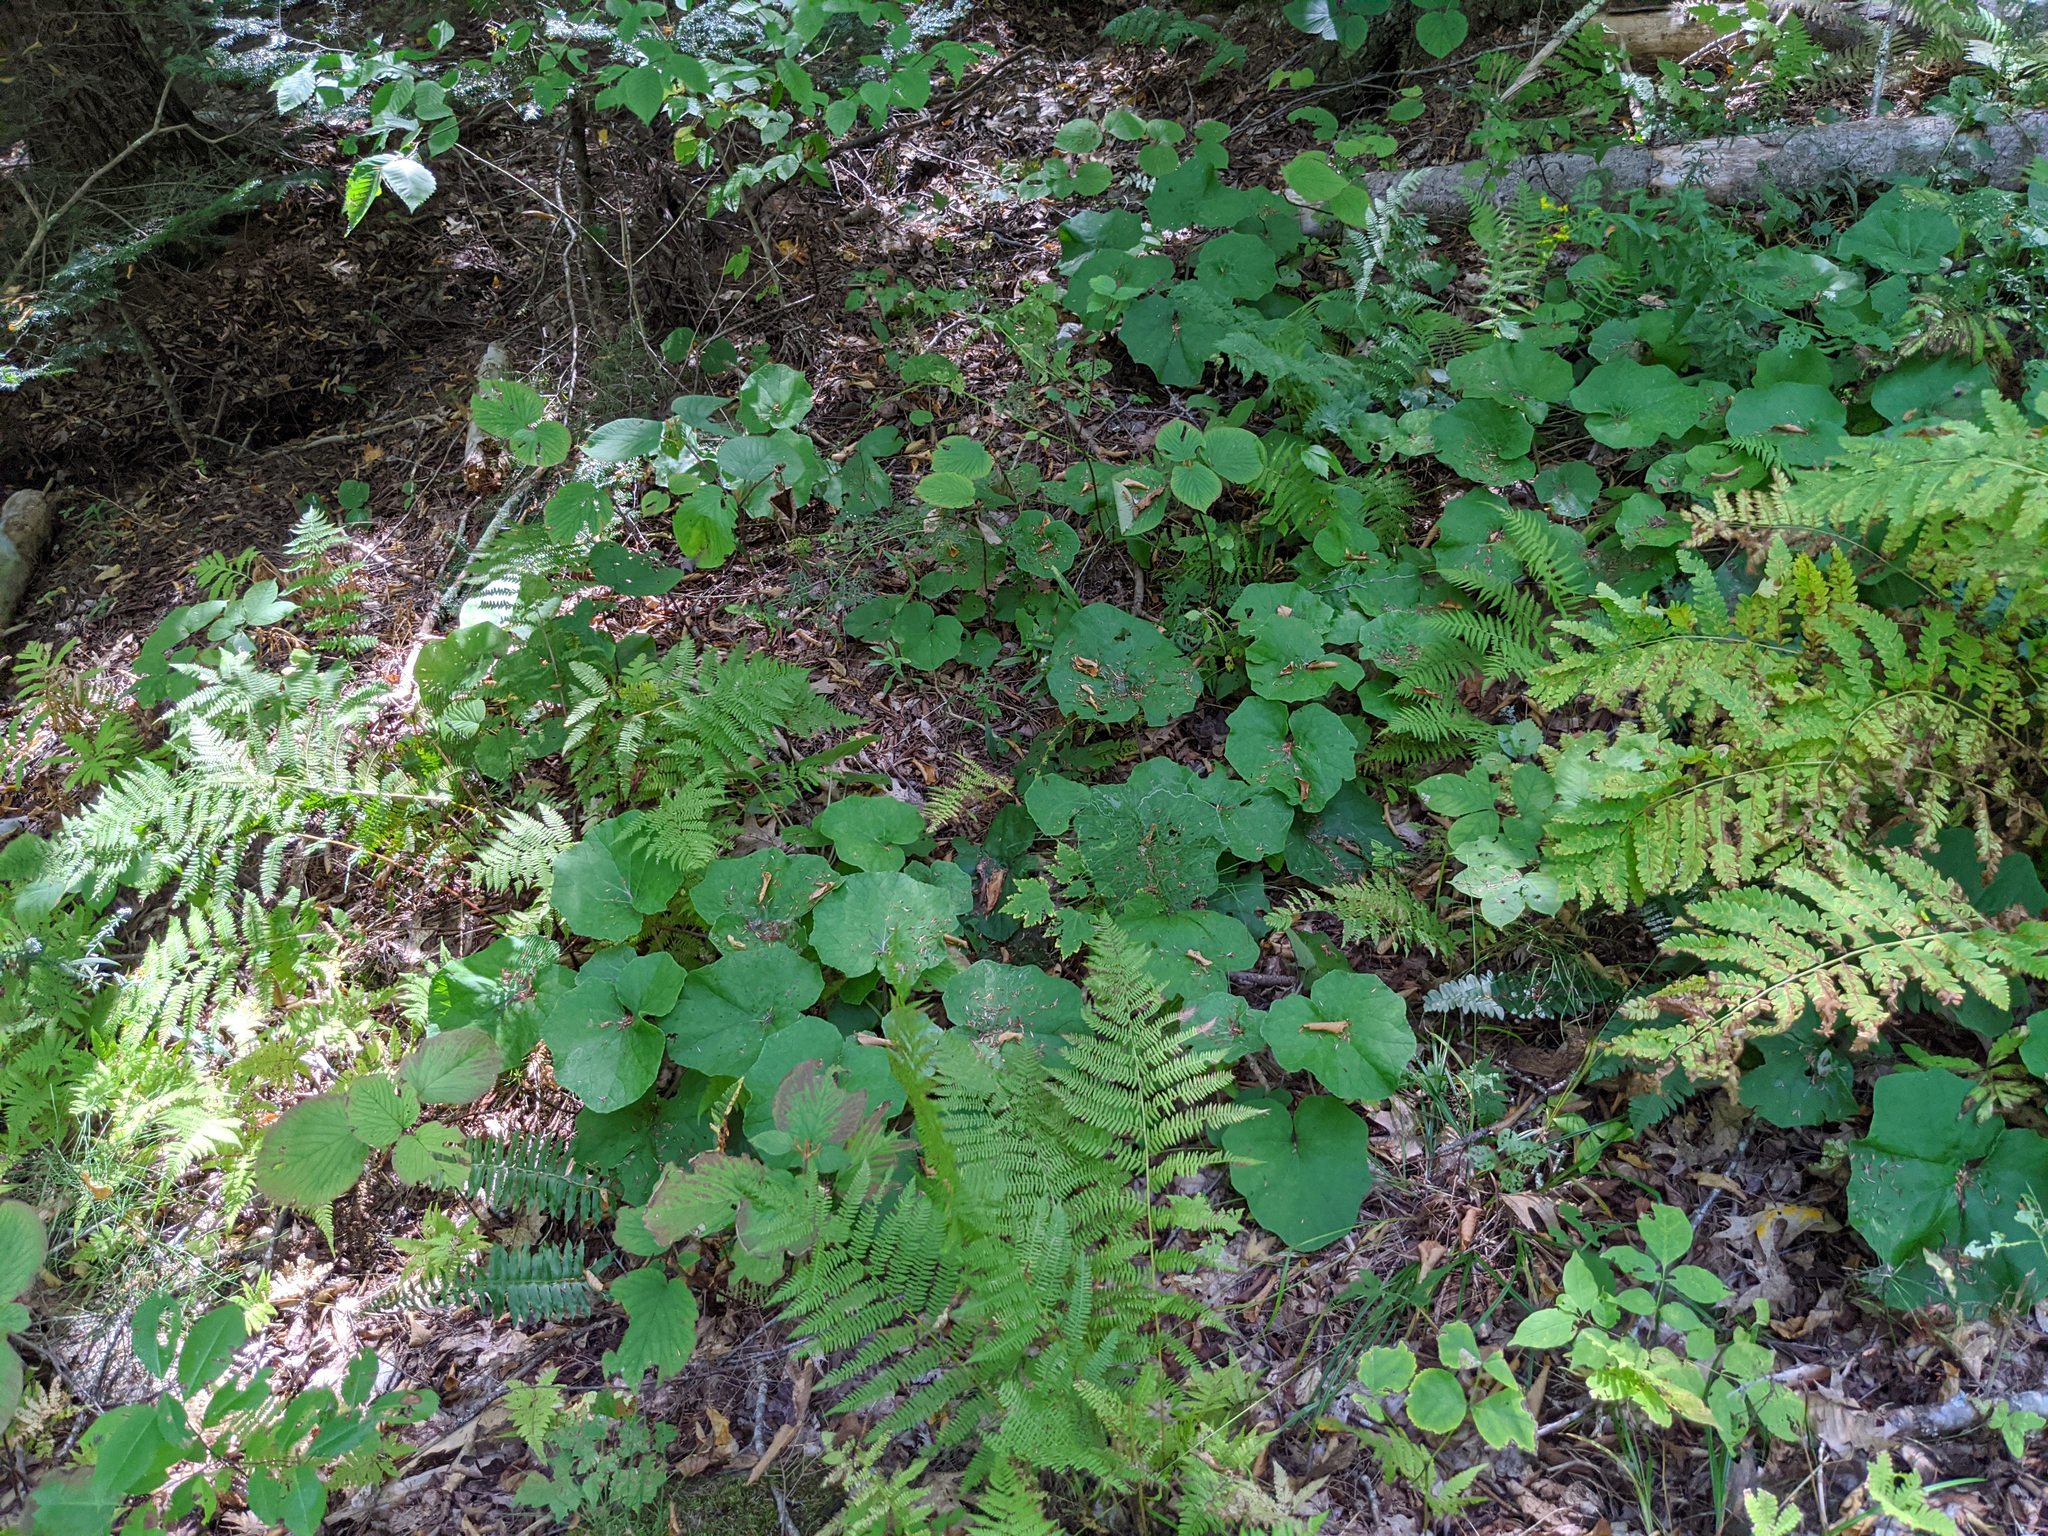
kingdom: Plantae
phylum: Tracheophyta
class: Magnoliopsida
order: Asterales
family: Asteraceae
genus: Tussilago
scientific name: Tussilago farfara
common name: Coltsfoot
